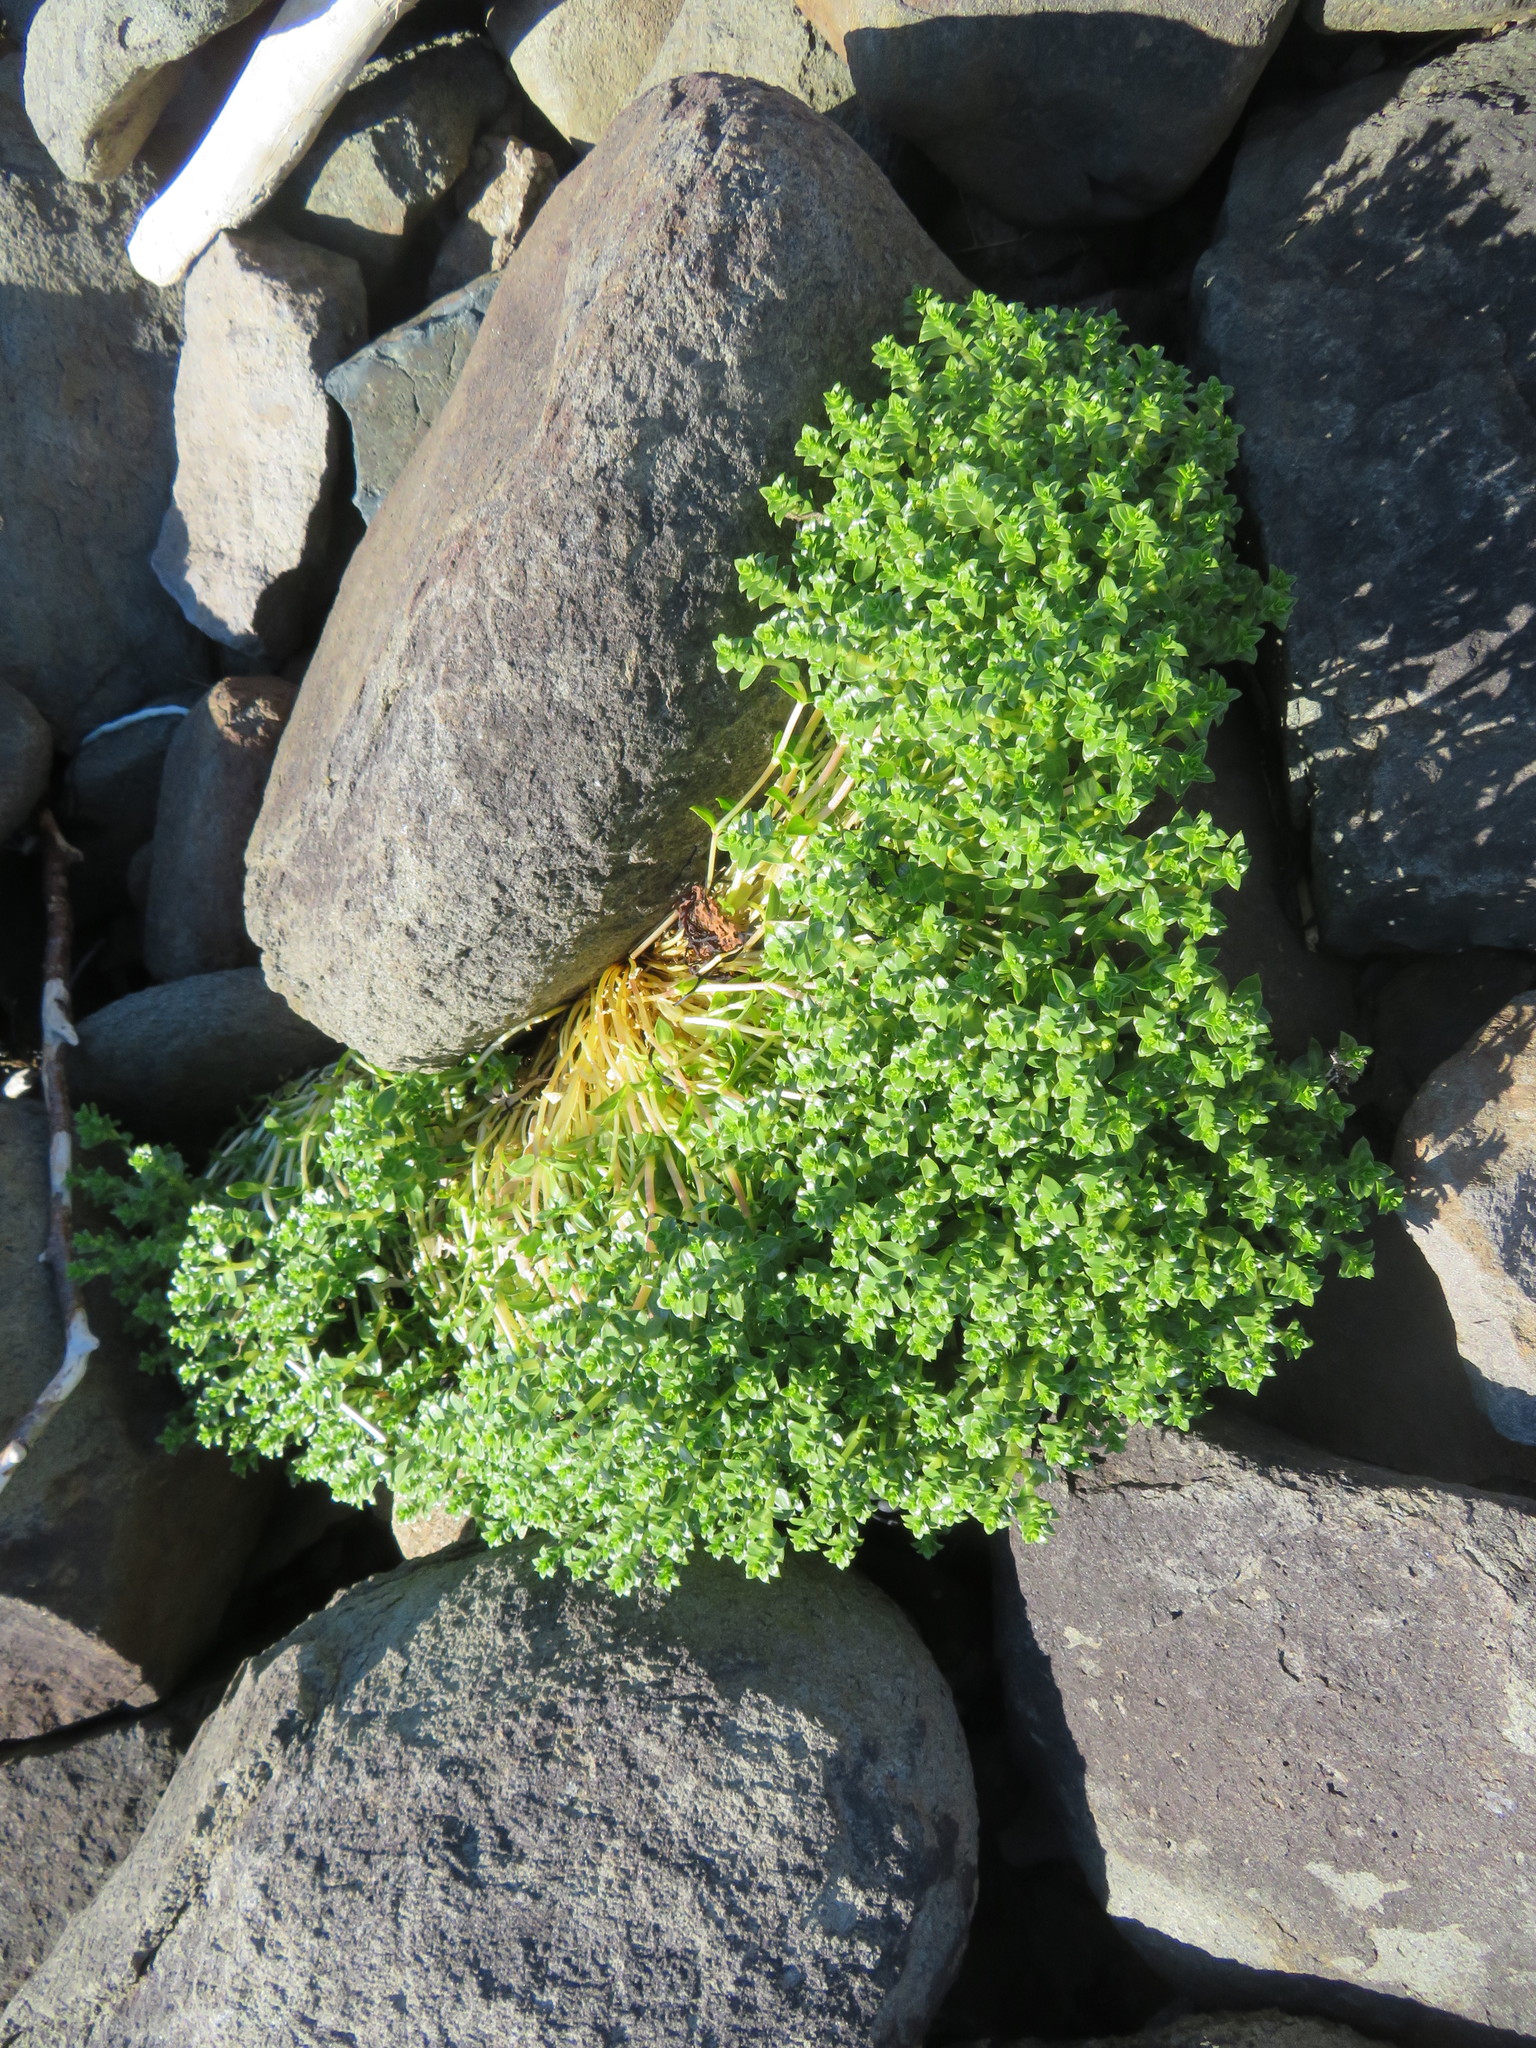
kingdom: Plantae
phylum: Tracheophyta
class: Magnoliopsida
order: Caryophyllales
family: Caryophyllaceae
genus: Honckenya
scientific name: Honckenya peploides
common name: Sea sandwort
